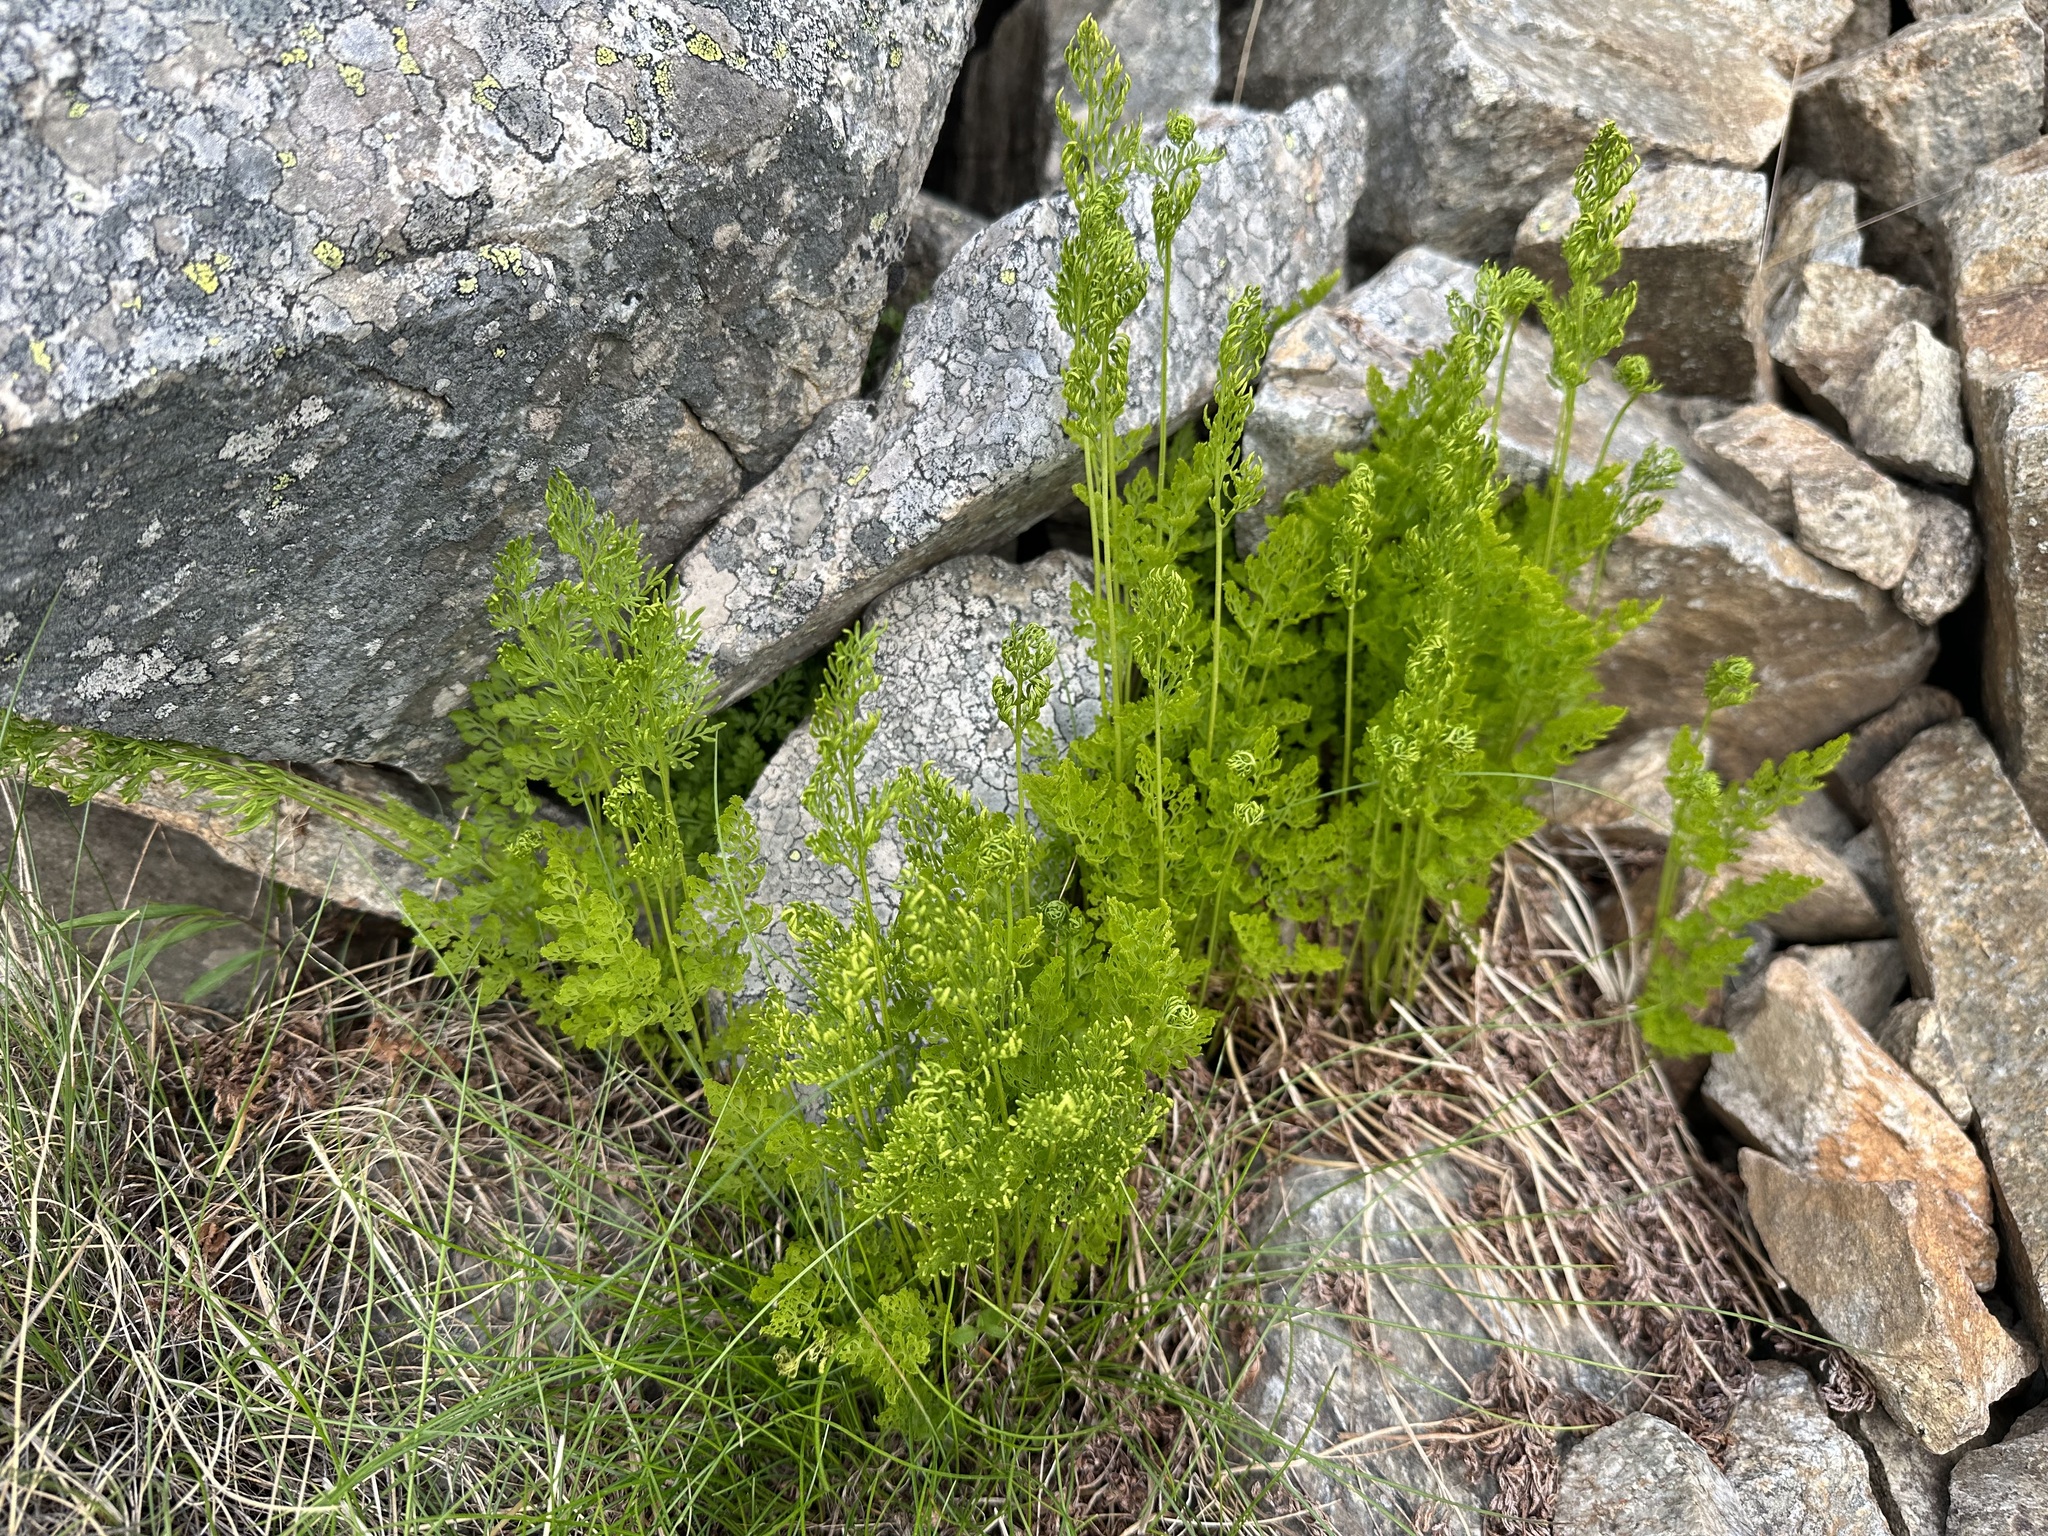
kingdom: Plantae
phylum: Tracheophyta
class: Polypodiopsida
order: Polypodiales
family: Pteridaceae
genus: Cryptogramma
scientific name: Cryptogramma crispa
